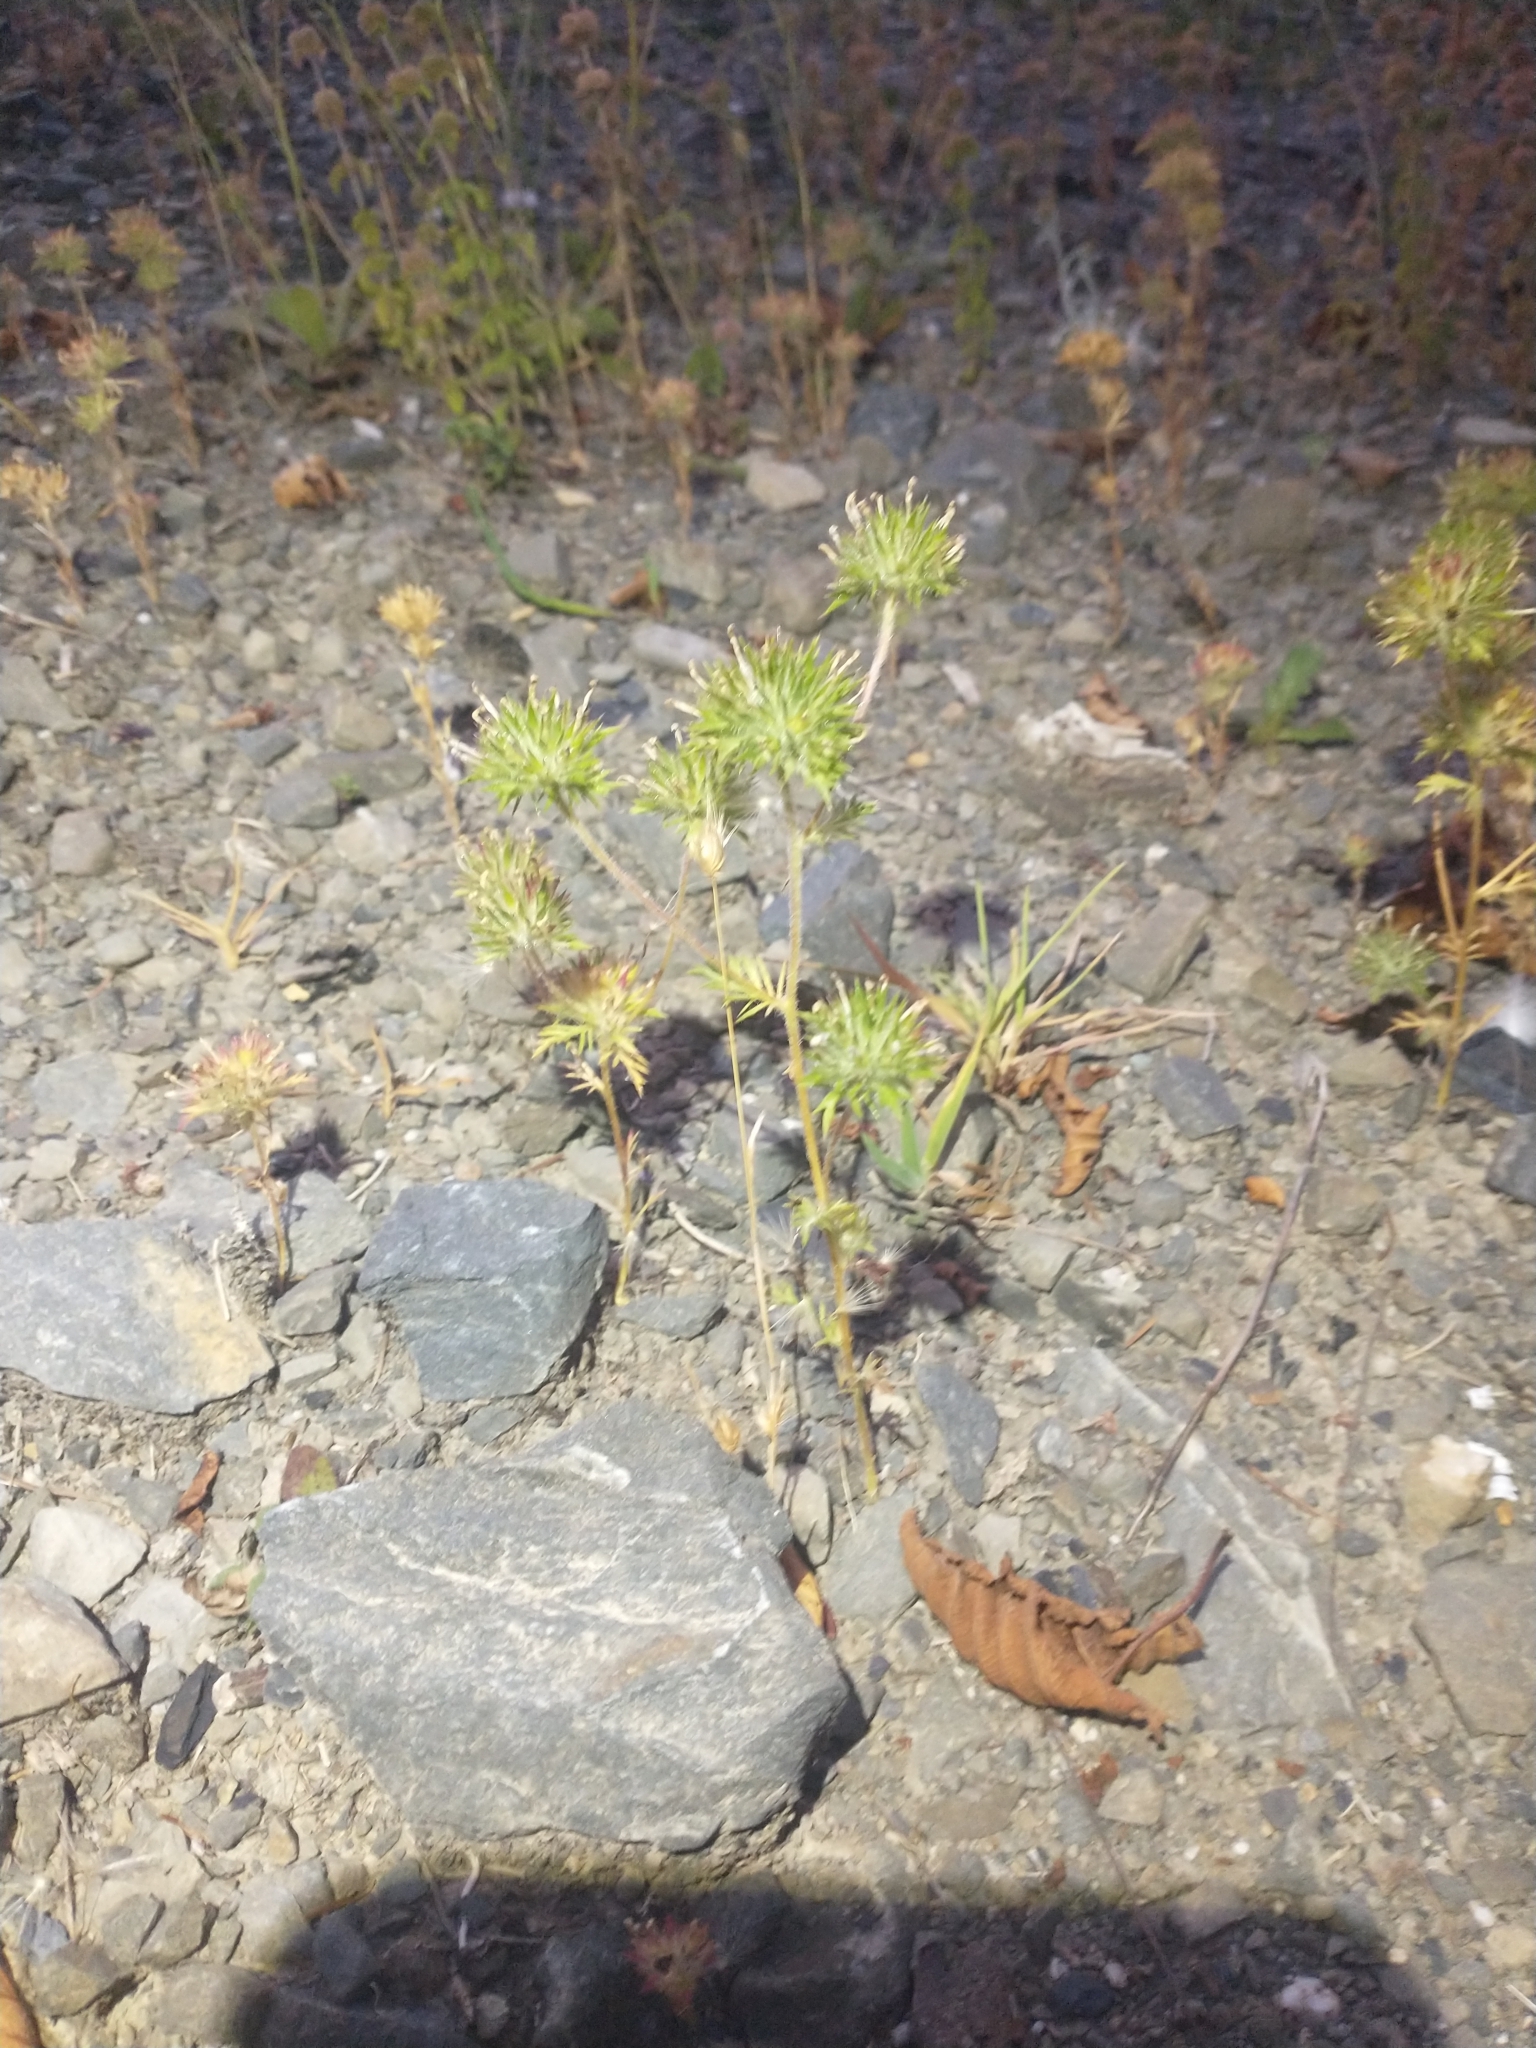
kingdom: Plantae
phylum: Tracheophyta
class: Magnoliopsida
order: Ericales
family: Polemoniaceae
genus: Navarretia
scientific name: Navarretia squarrosa
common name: Skunkweed
